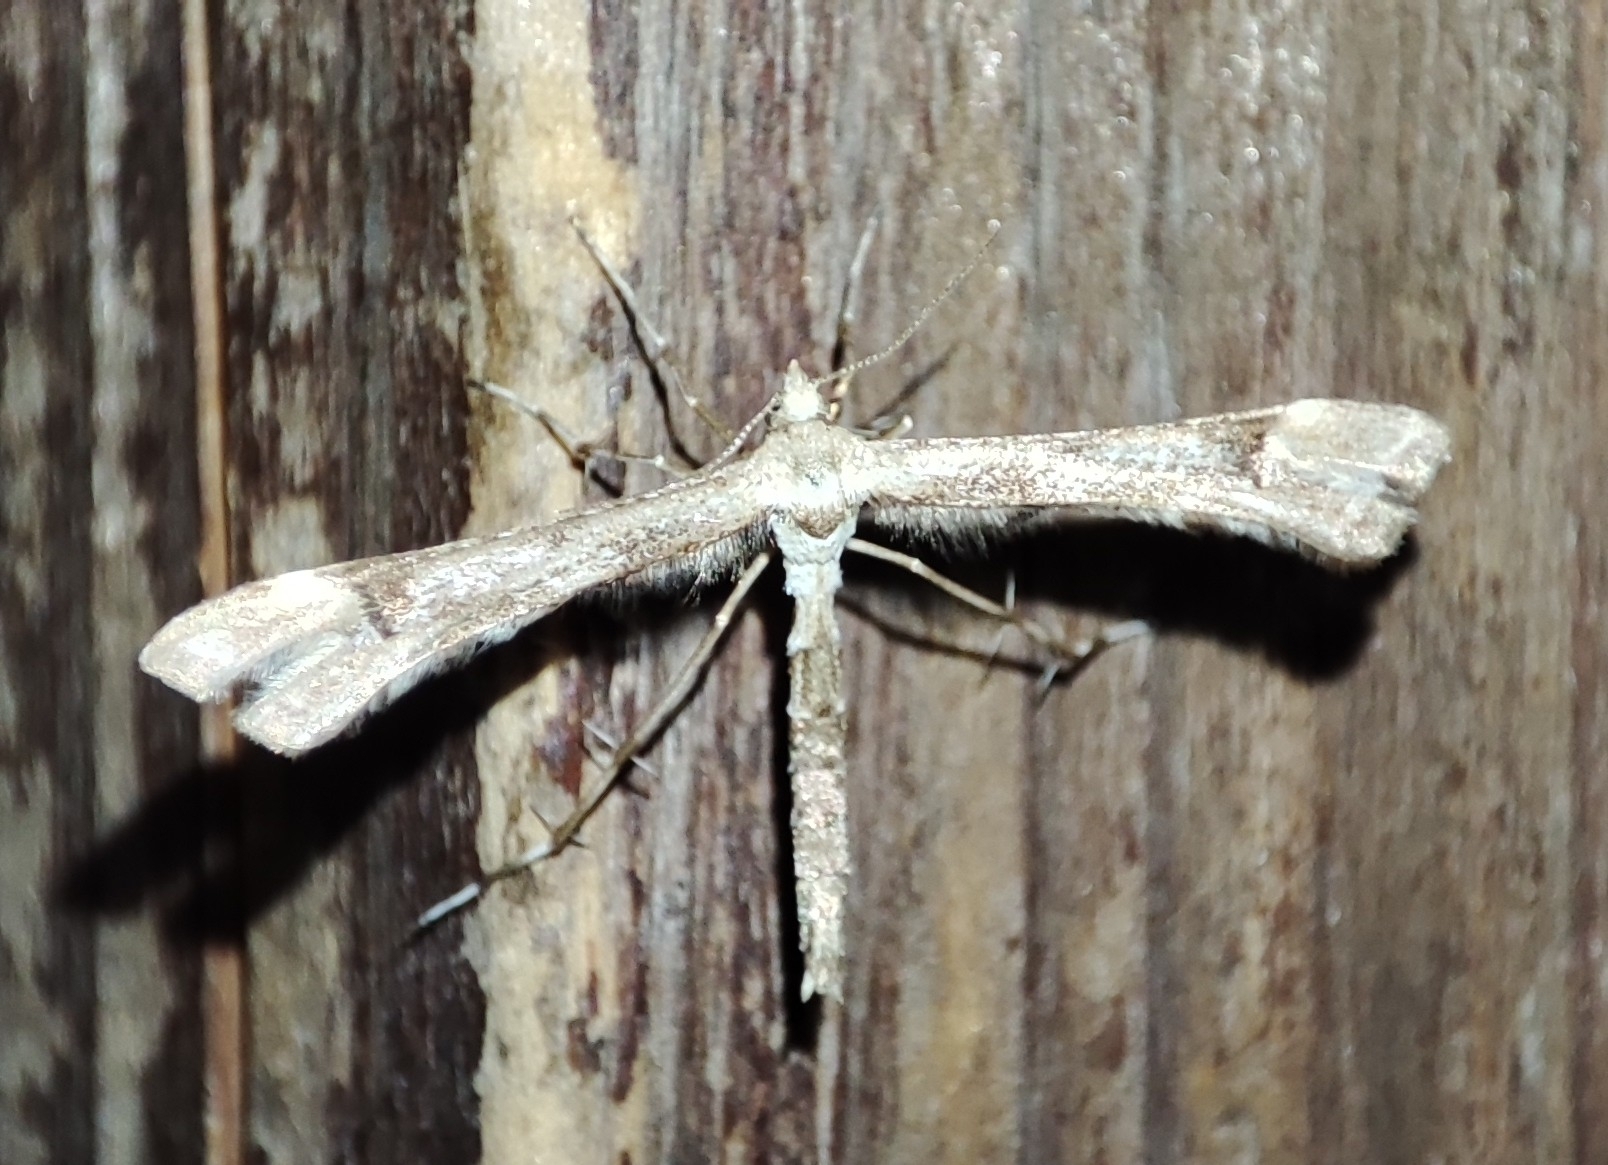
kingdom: Animalia
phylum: Arthropoda
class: Insecta
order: Lepidoptera
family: Pterophoridae
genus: Platyptilia
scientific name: Platyptilia gonodactyla
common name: Triangle plume
